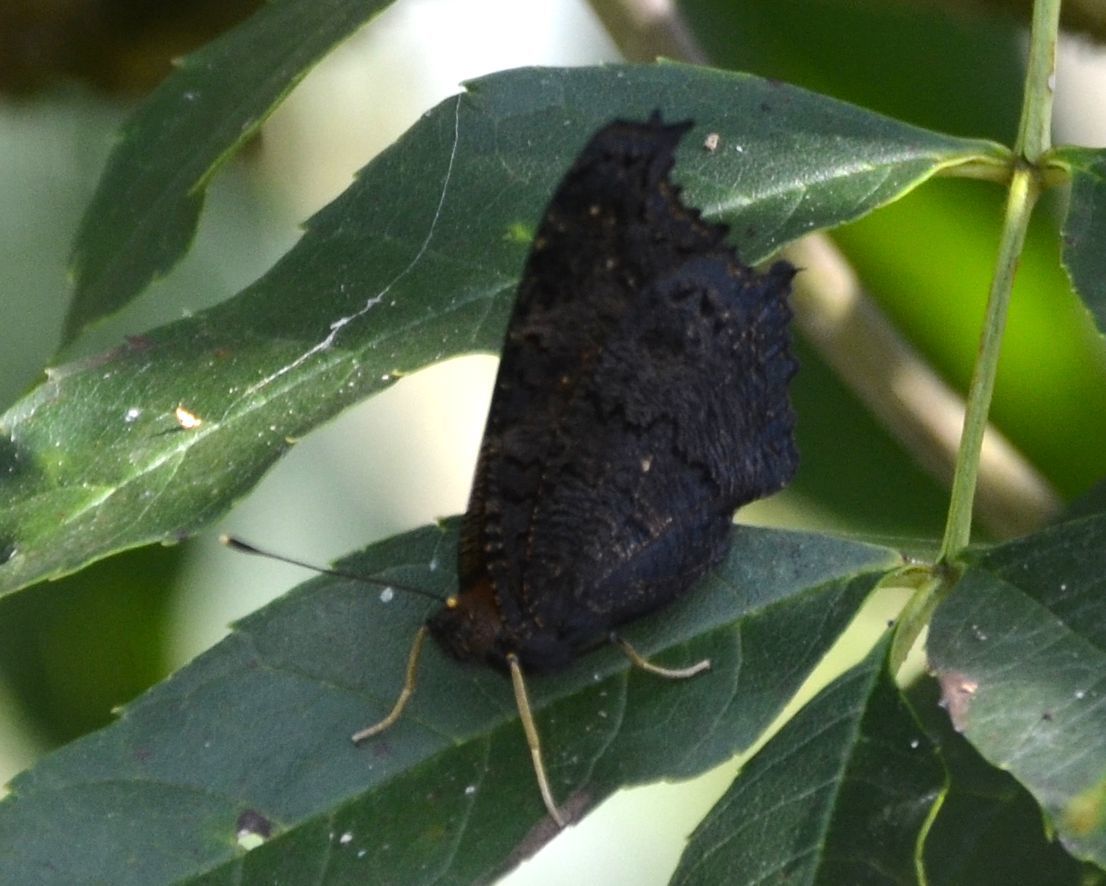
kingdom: Animalia
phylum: Arthropoda
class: Insecta
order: Lepidoptera
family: Nymphalidae
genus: Aglais
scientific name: Aglais io
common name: Peacock
